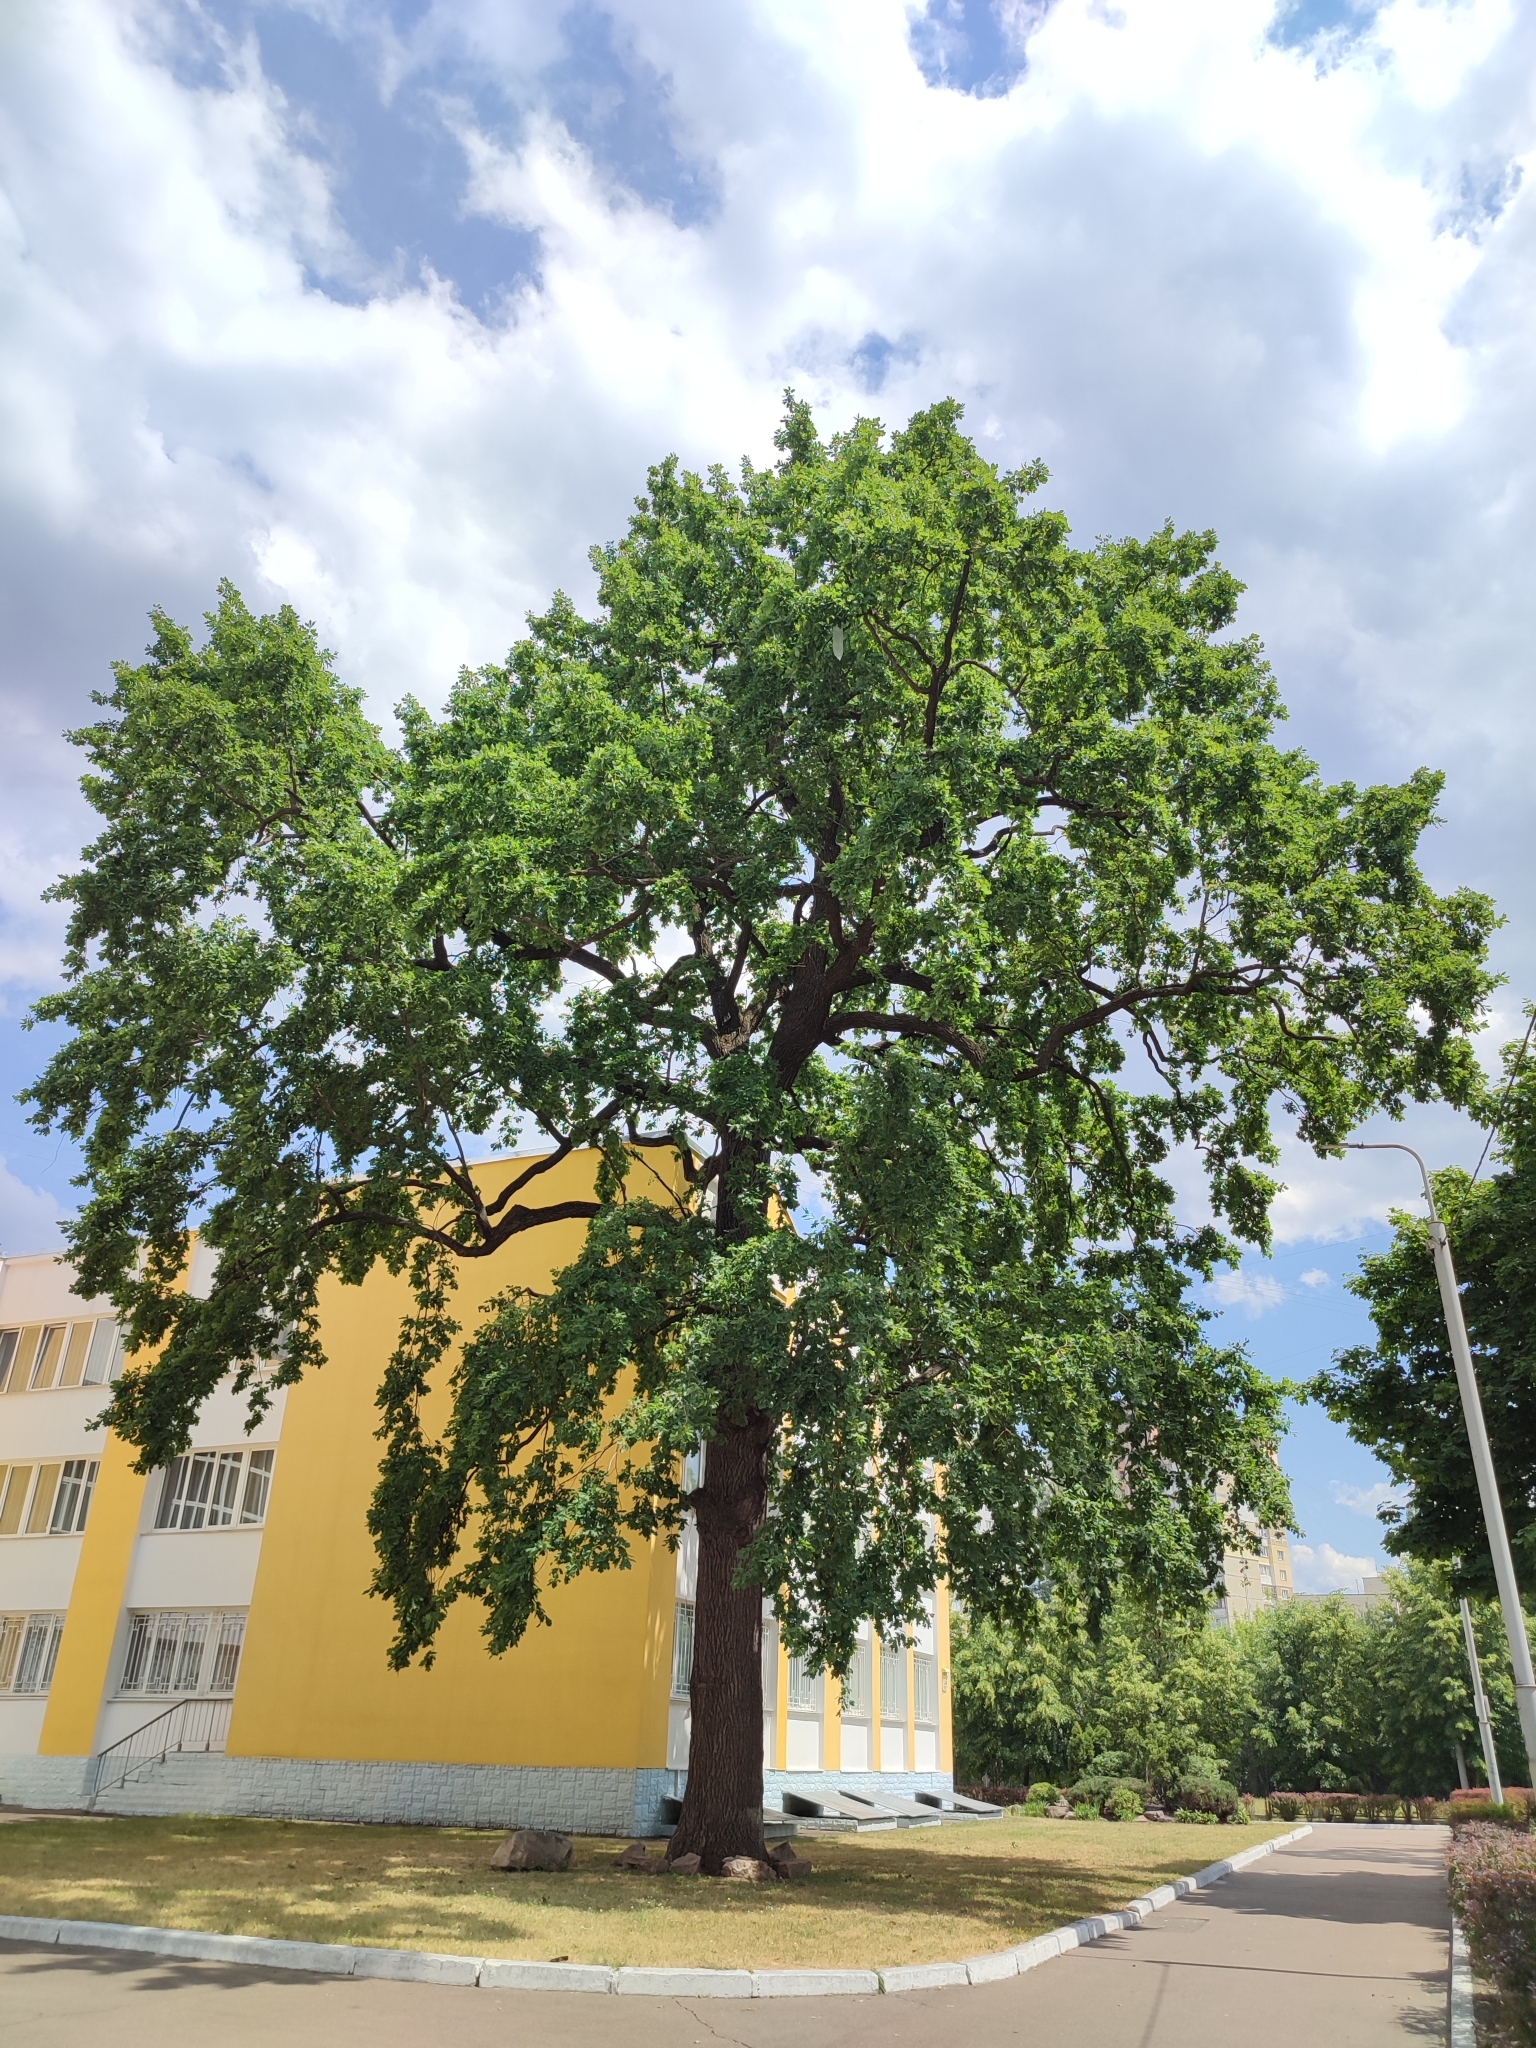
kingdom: Plantae
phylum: Tracheophyta
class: Magnoliopsida
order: Fagales
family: Fagaceae
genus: Quercus
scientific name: Quercus robur
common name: Pedunculate oak
